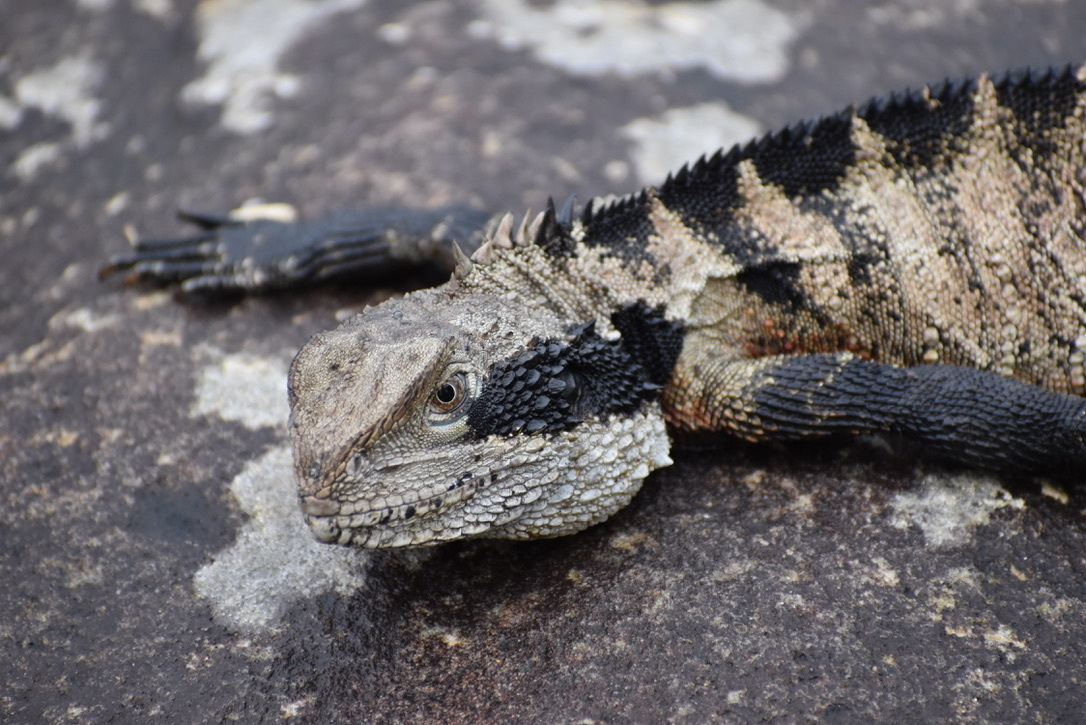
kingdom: Animalia
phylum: Chordata
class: Squamata
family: Agamidae
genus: Intellagama
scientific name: Intellagama lesueurii
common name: Eastern water dragon
